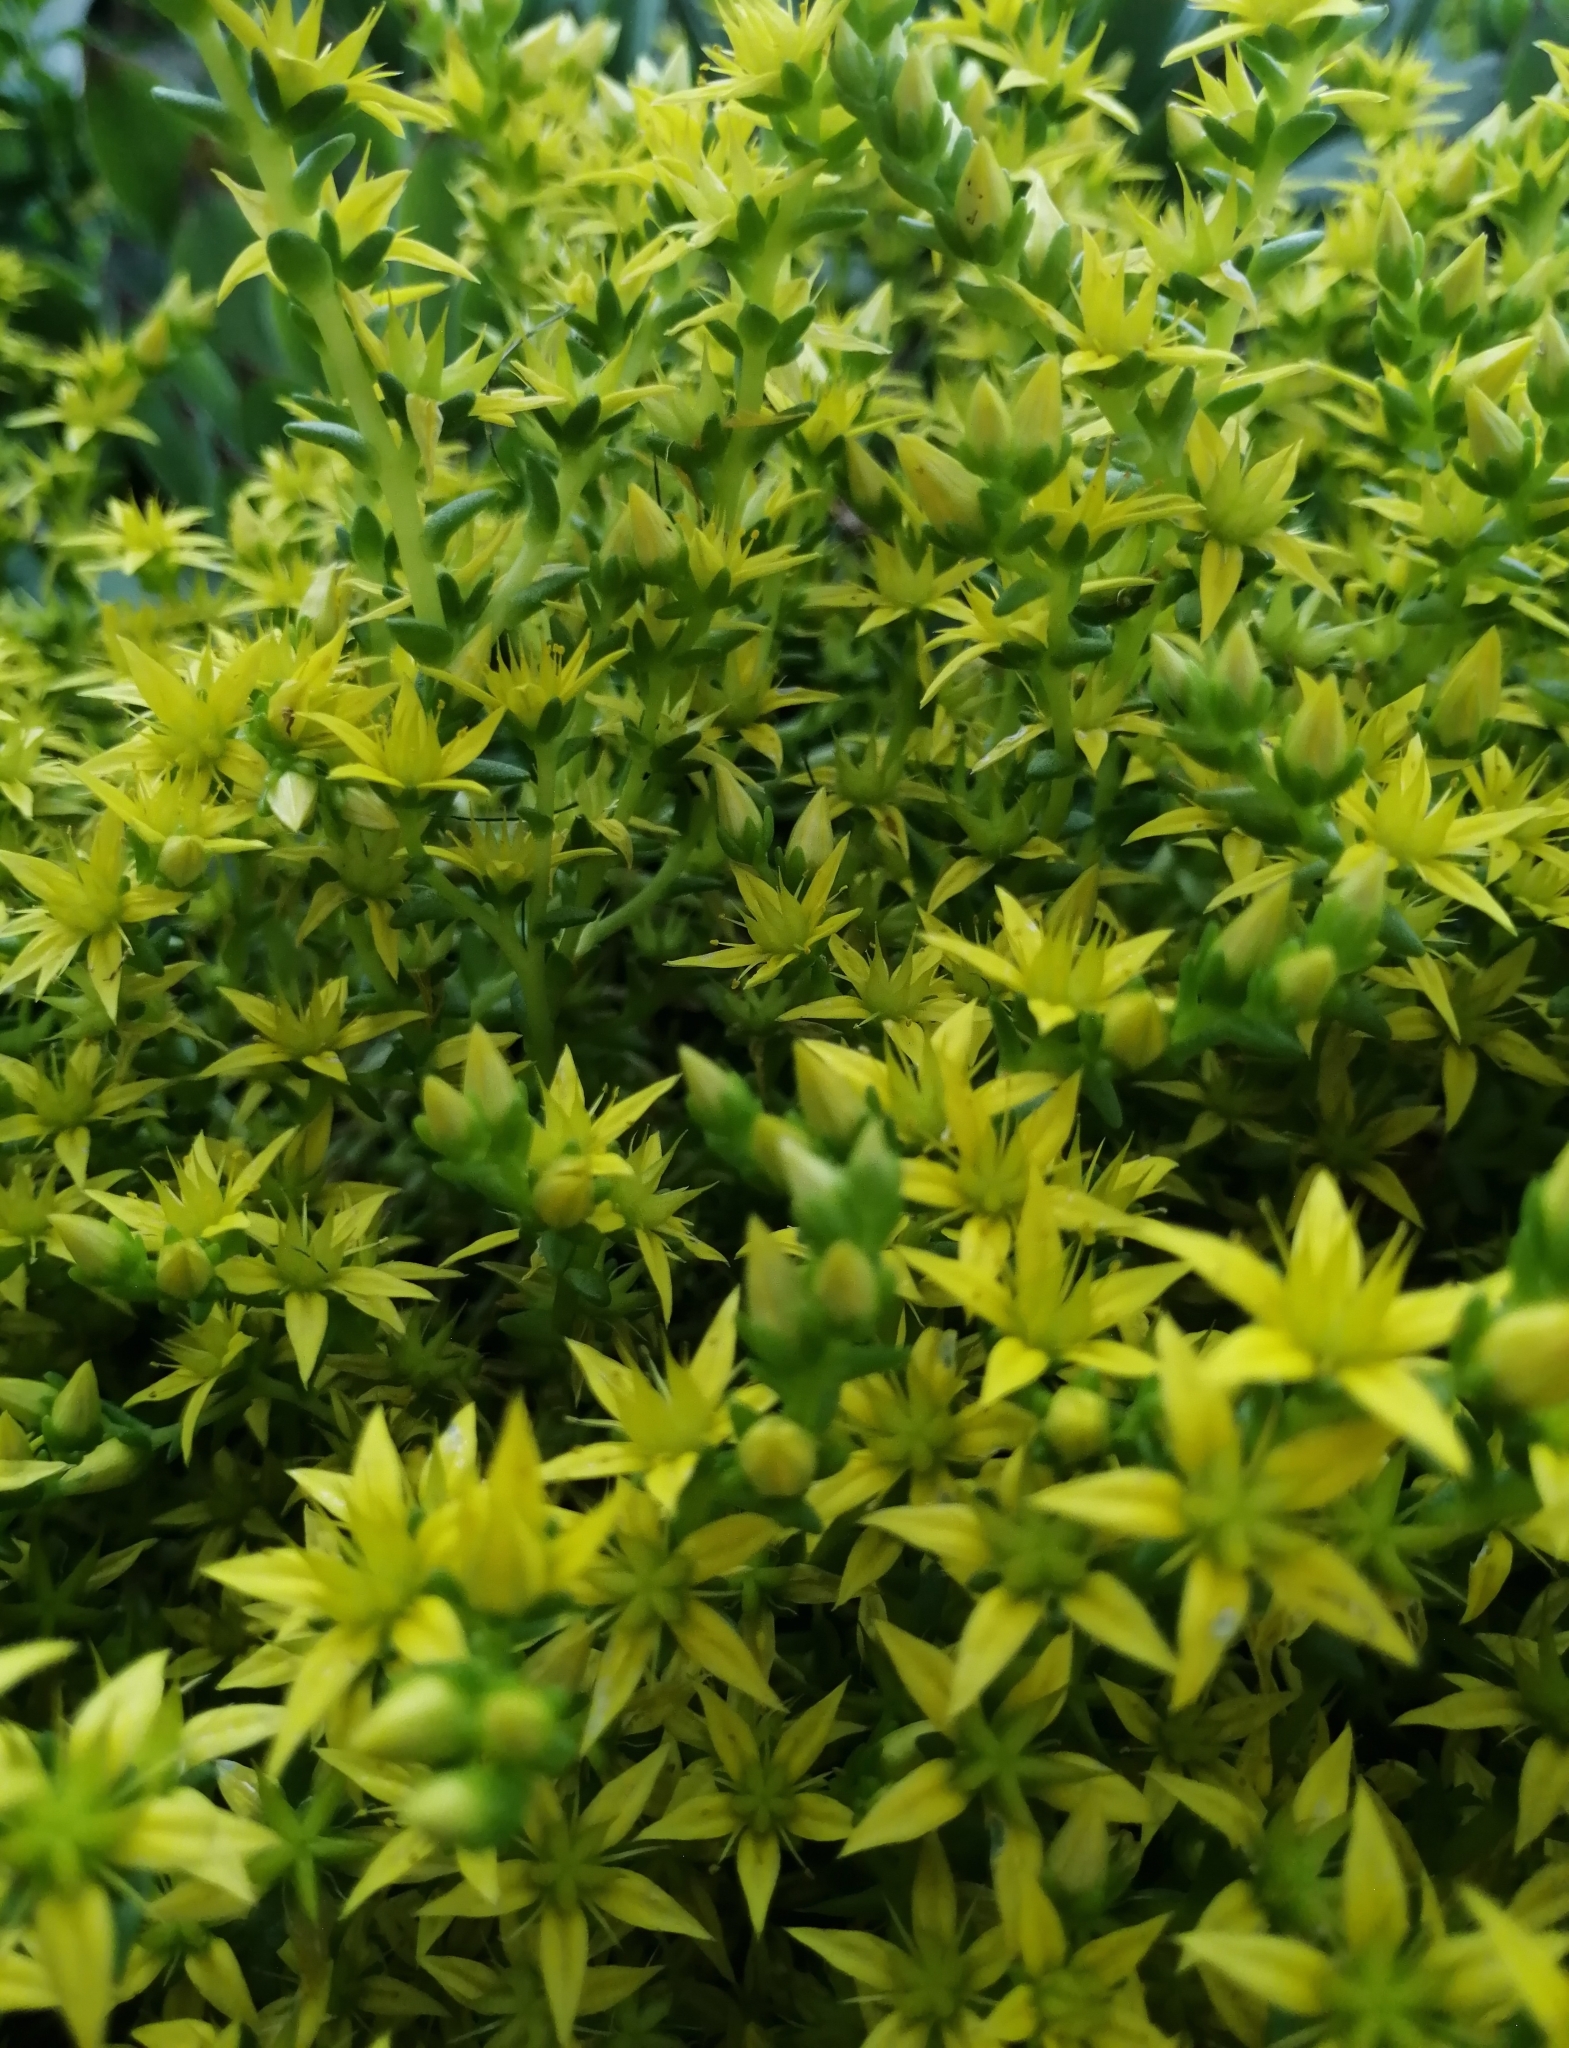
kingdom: Plantae
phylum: Tracheophyta
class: Magnoliopsida
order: Saxifragales
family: Crassulaceae
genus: Sedum
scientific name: Sedum acre
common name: Biting stonecrop
